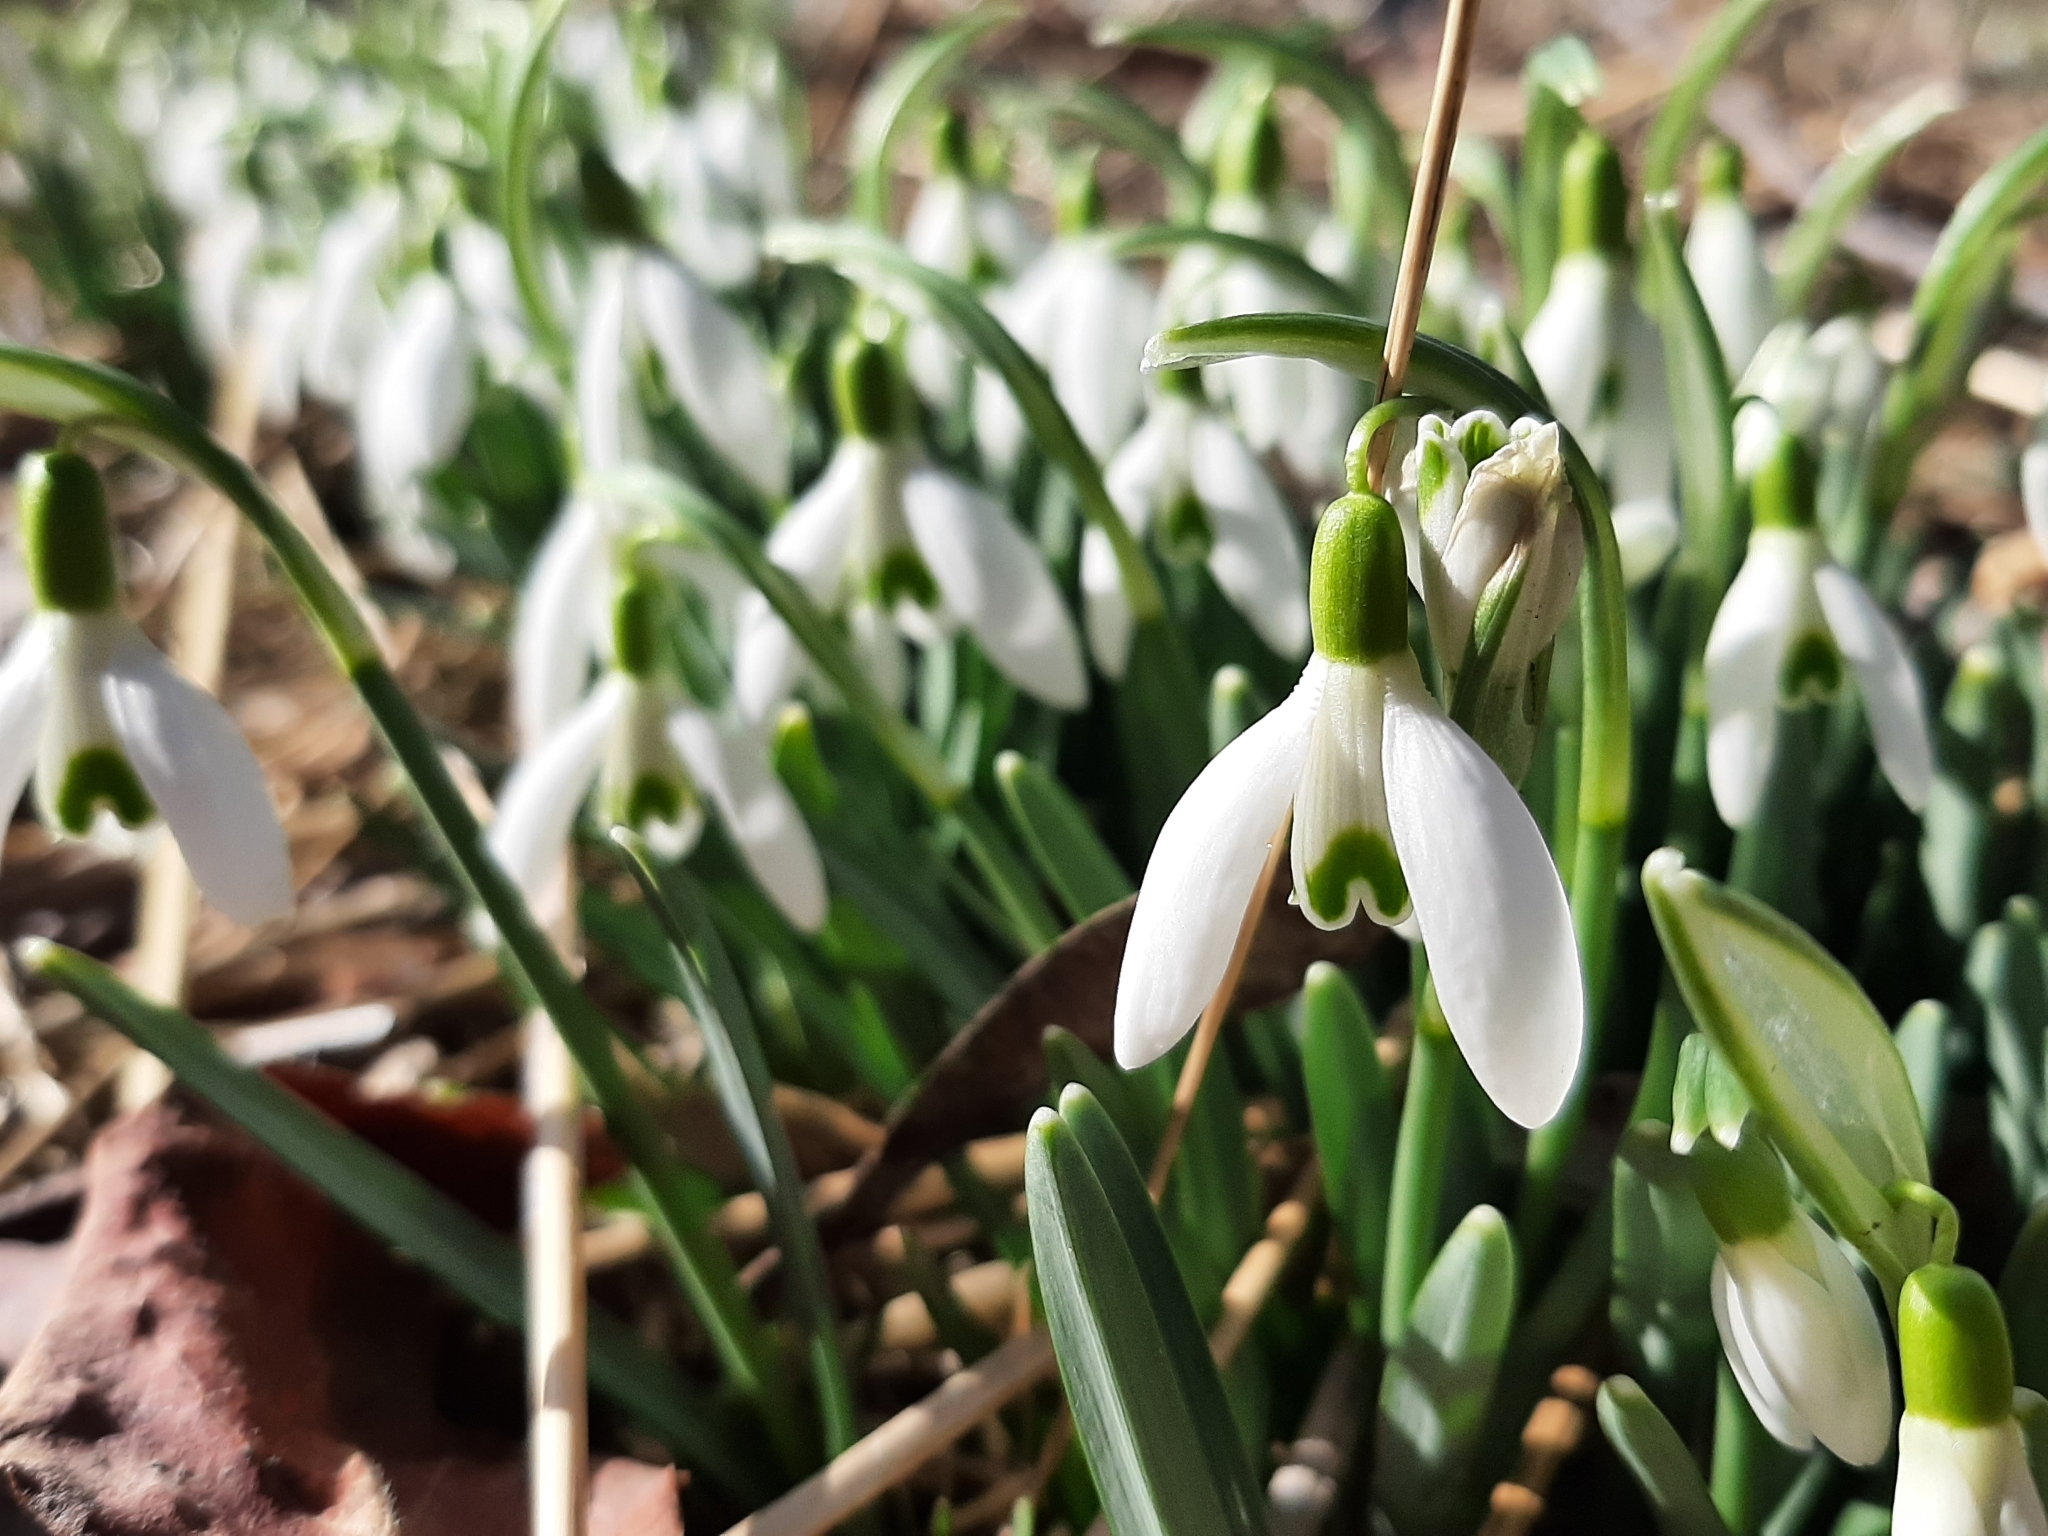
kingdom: Plantae
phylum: Tracheophyta
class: Liliopsida
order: Asparagales
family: Amaryllidaceae
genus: Galanthus
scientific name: Galanthus nivalis
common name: Snowdrop
